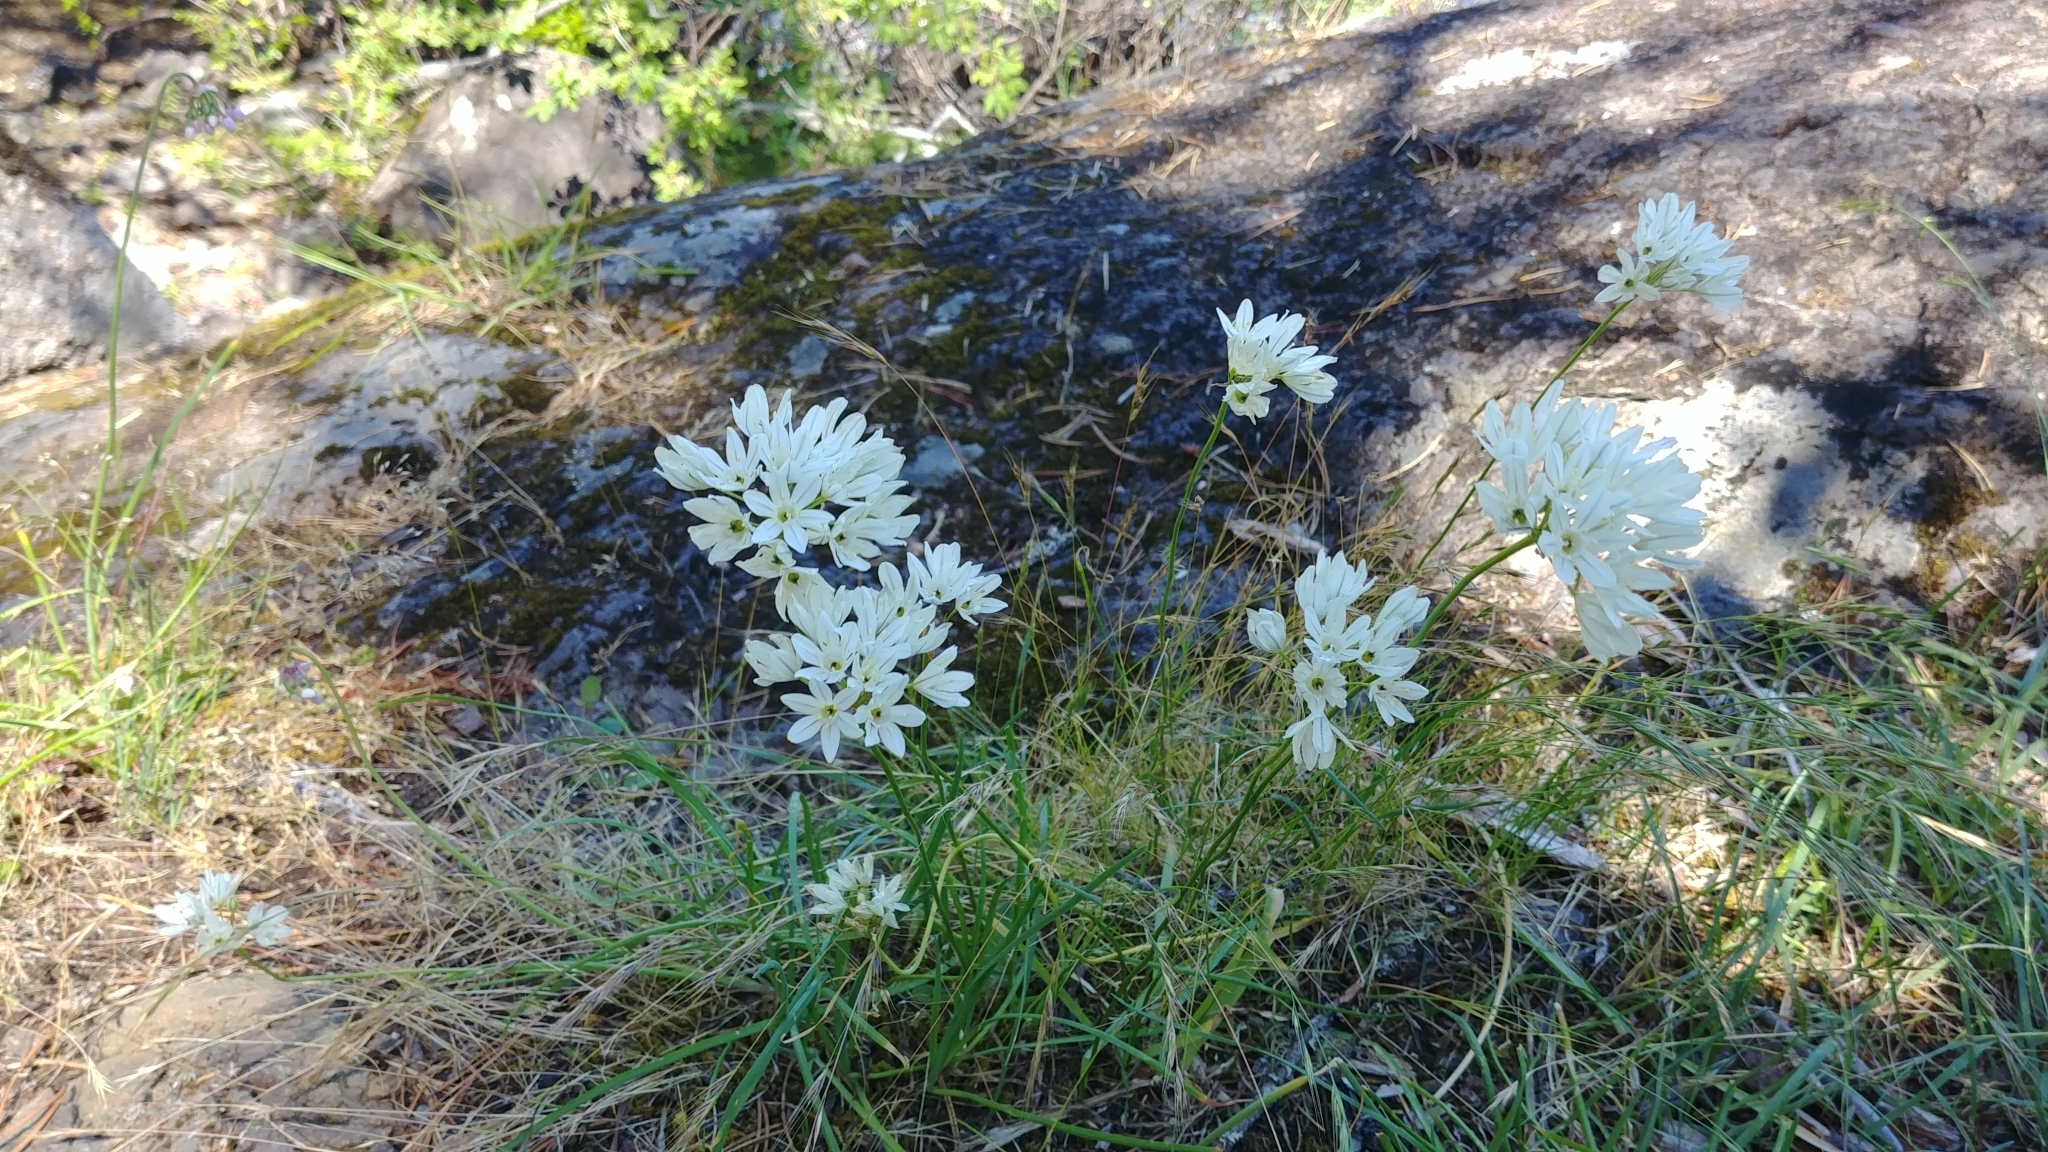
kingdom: Plantae
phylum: Tracheophyta
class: Liliopsida
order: Asparagales
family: Asparagaceae
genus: Triteleia
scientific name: Triteleia hyacinthina
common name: White brodiaea
